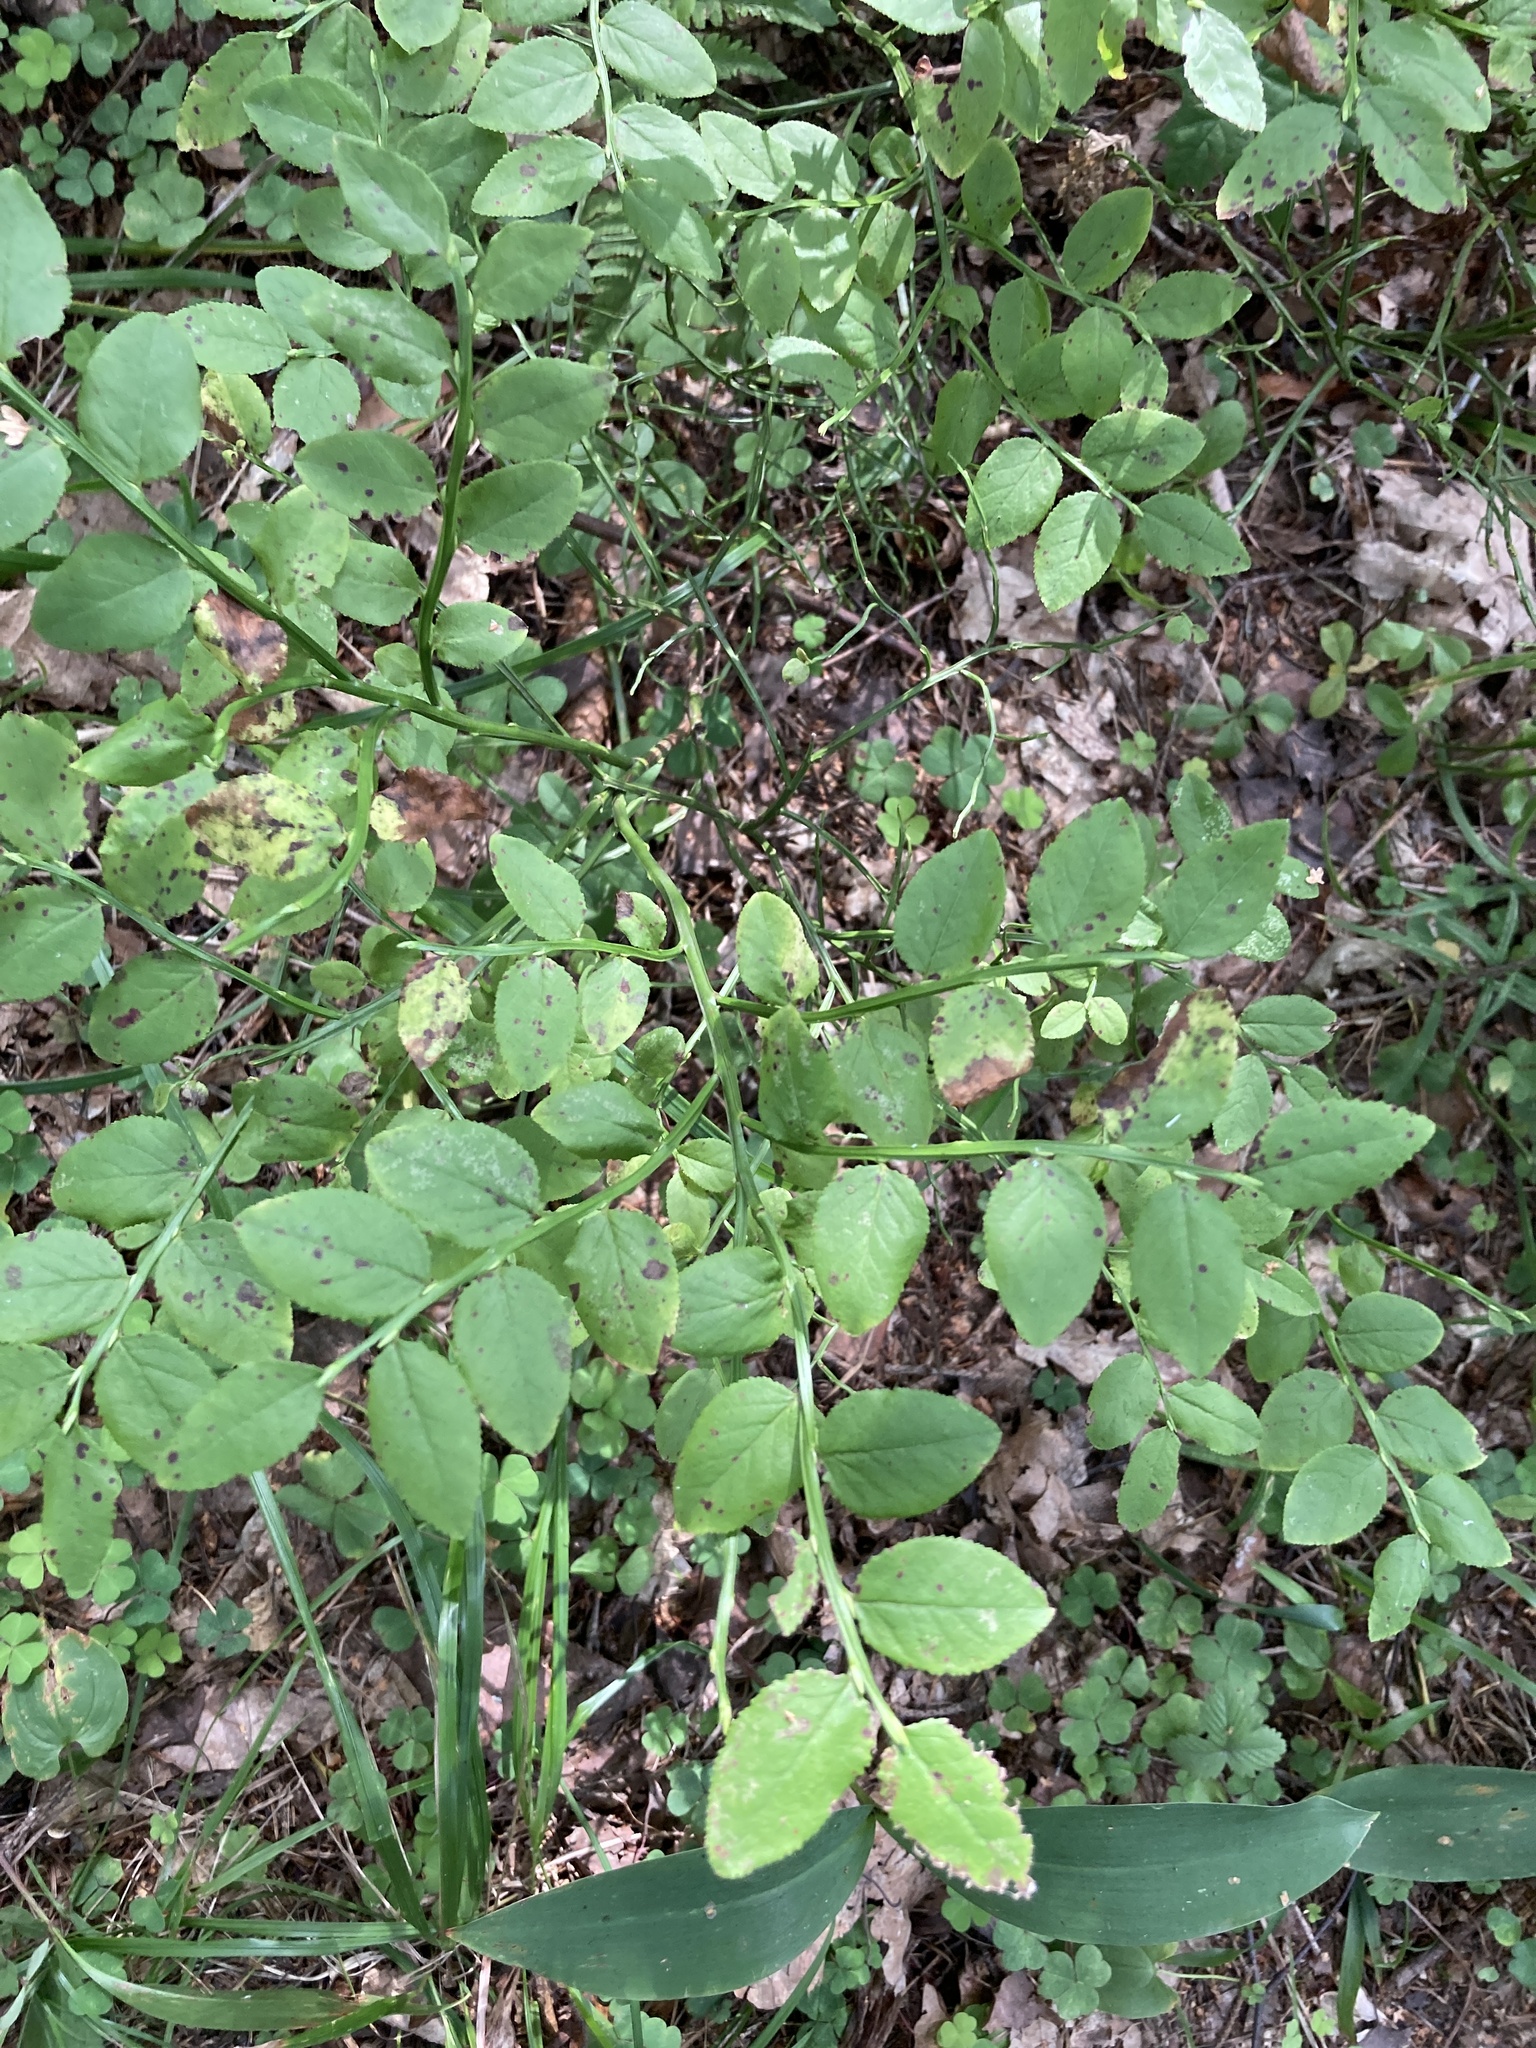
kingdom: Plantae
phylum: Tracheophyta
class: Magnoliopsida
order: Ericales
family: Ericaceae
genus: Vaccinium
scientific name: Vaccinium myrtillus
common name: Bilberry
